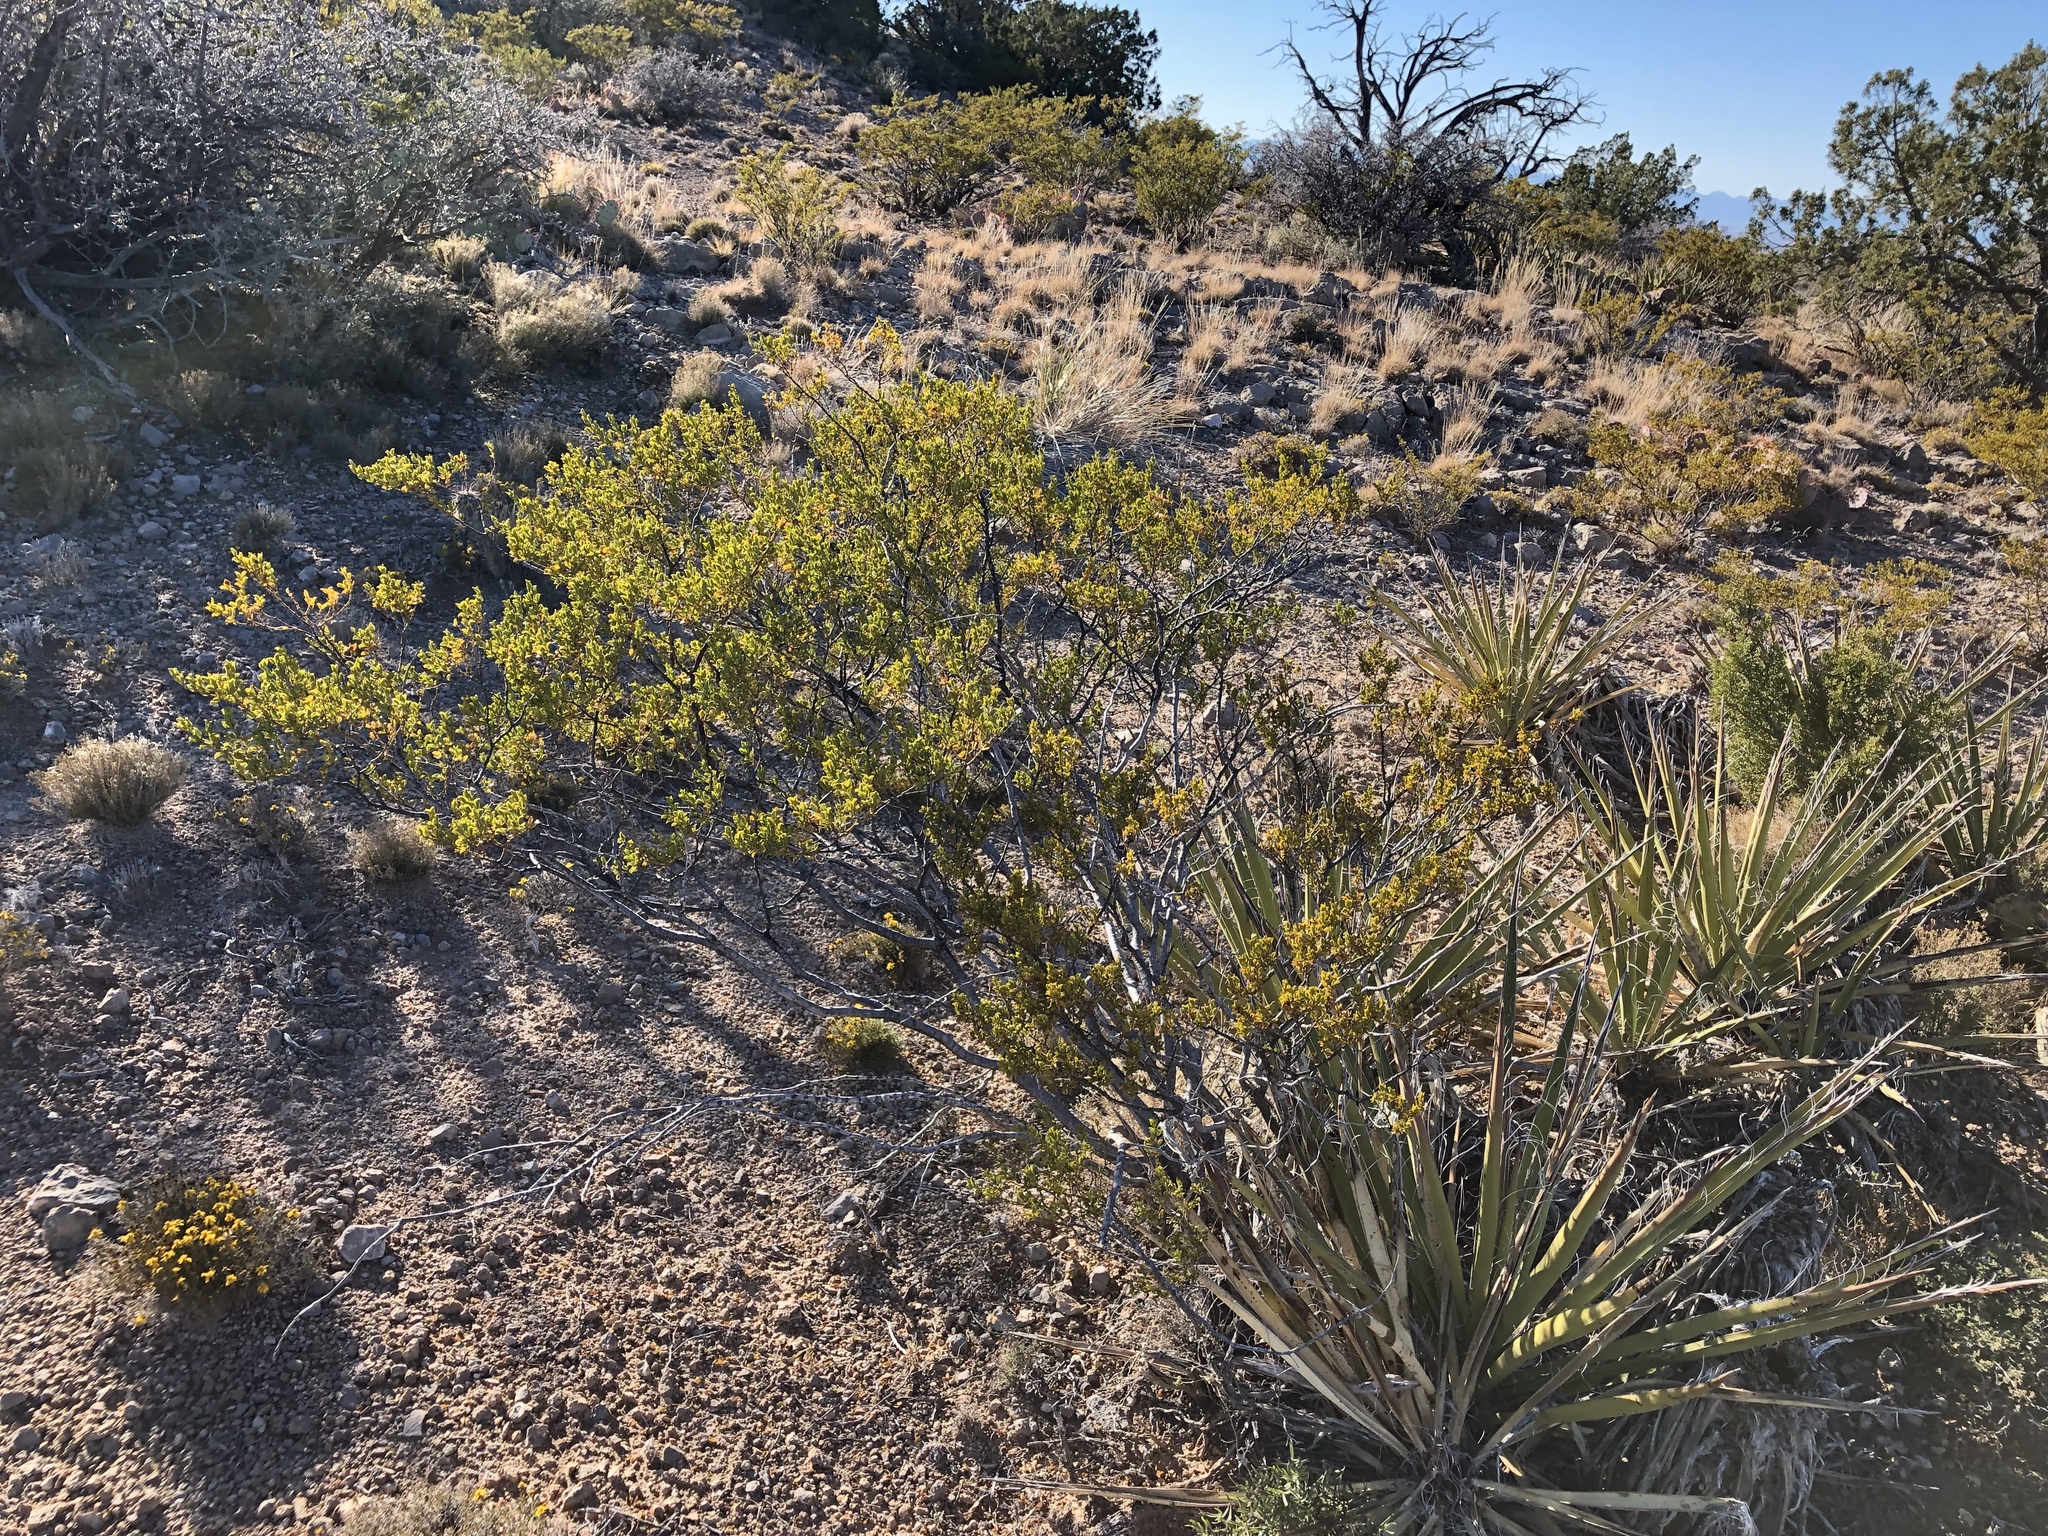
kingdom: Plantae
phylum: Tracheophyta
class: Magnoliopsida
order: Zygophyllales
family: Zygophyllaceae
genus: Larrea
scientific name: Larrea tridentata
